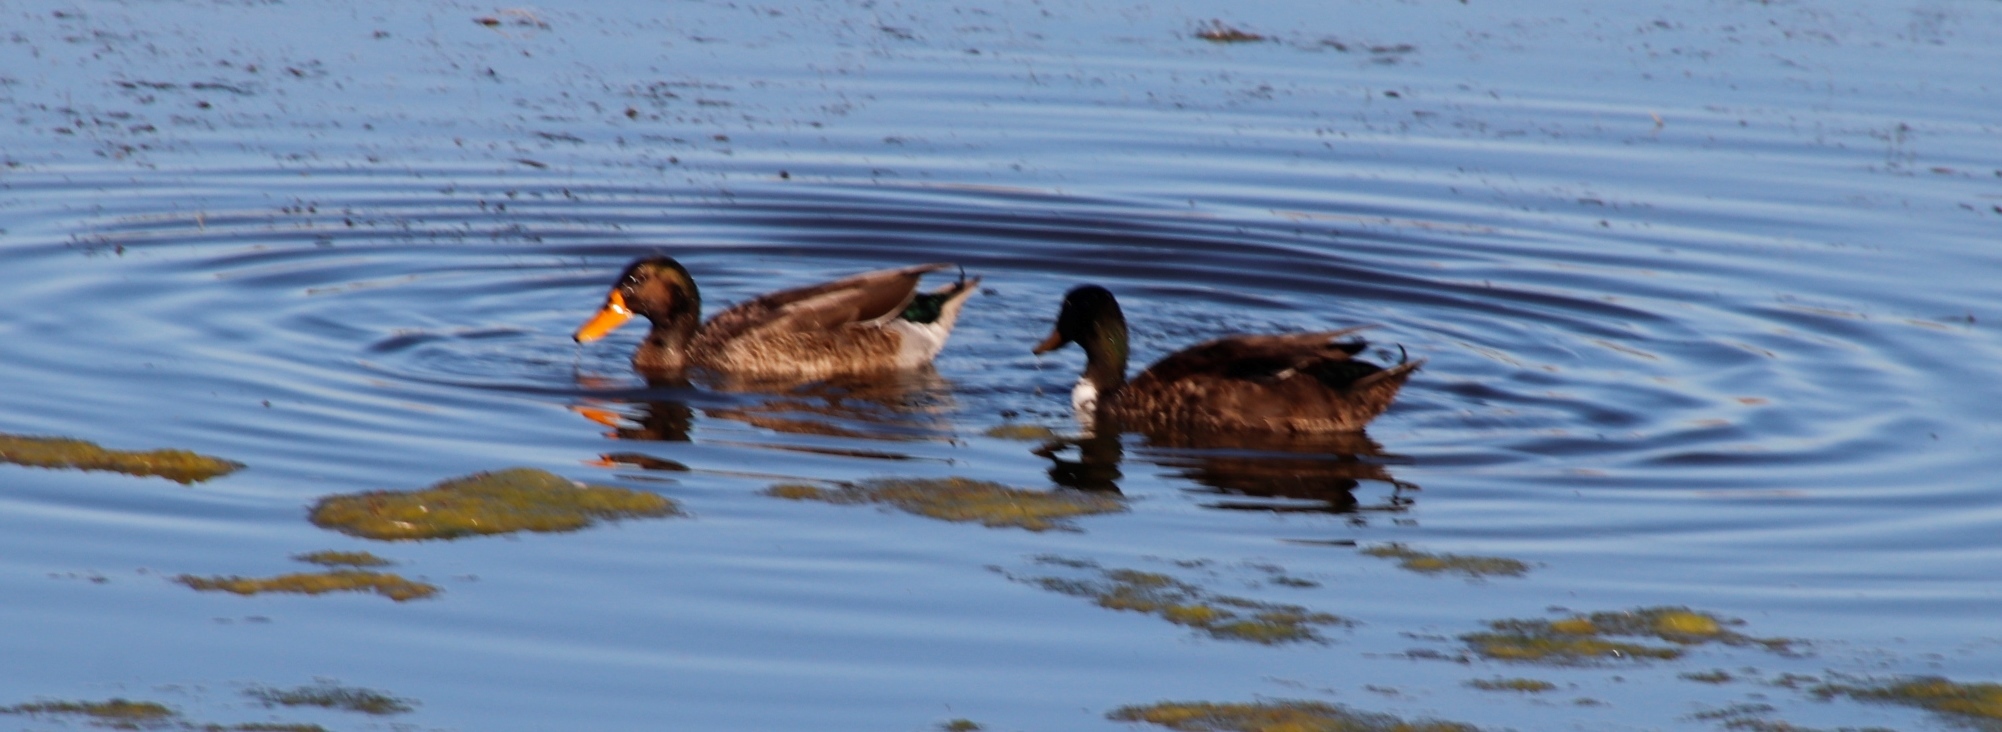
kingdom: Animalia
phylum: Chordata
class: Aves
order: Anseriformes
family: Anatidae
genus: Anas
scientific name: Anas platyrhynchos
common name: Mallard
